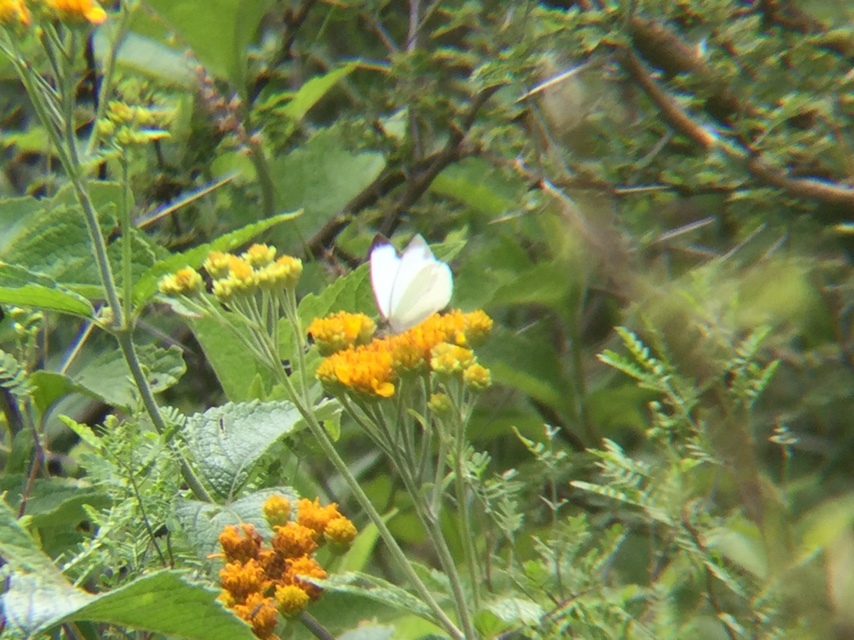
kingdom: Animalia
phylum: Arthropoda
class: Insecta
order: Lepidoptera
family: Pieridae
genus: Leptophobia
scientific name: Leptophobia aripa
